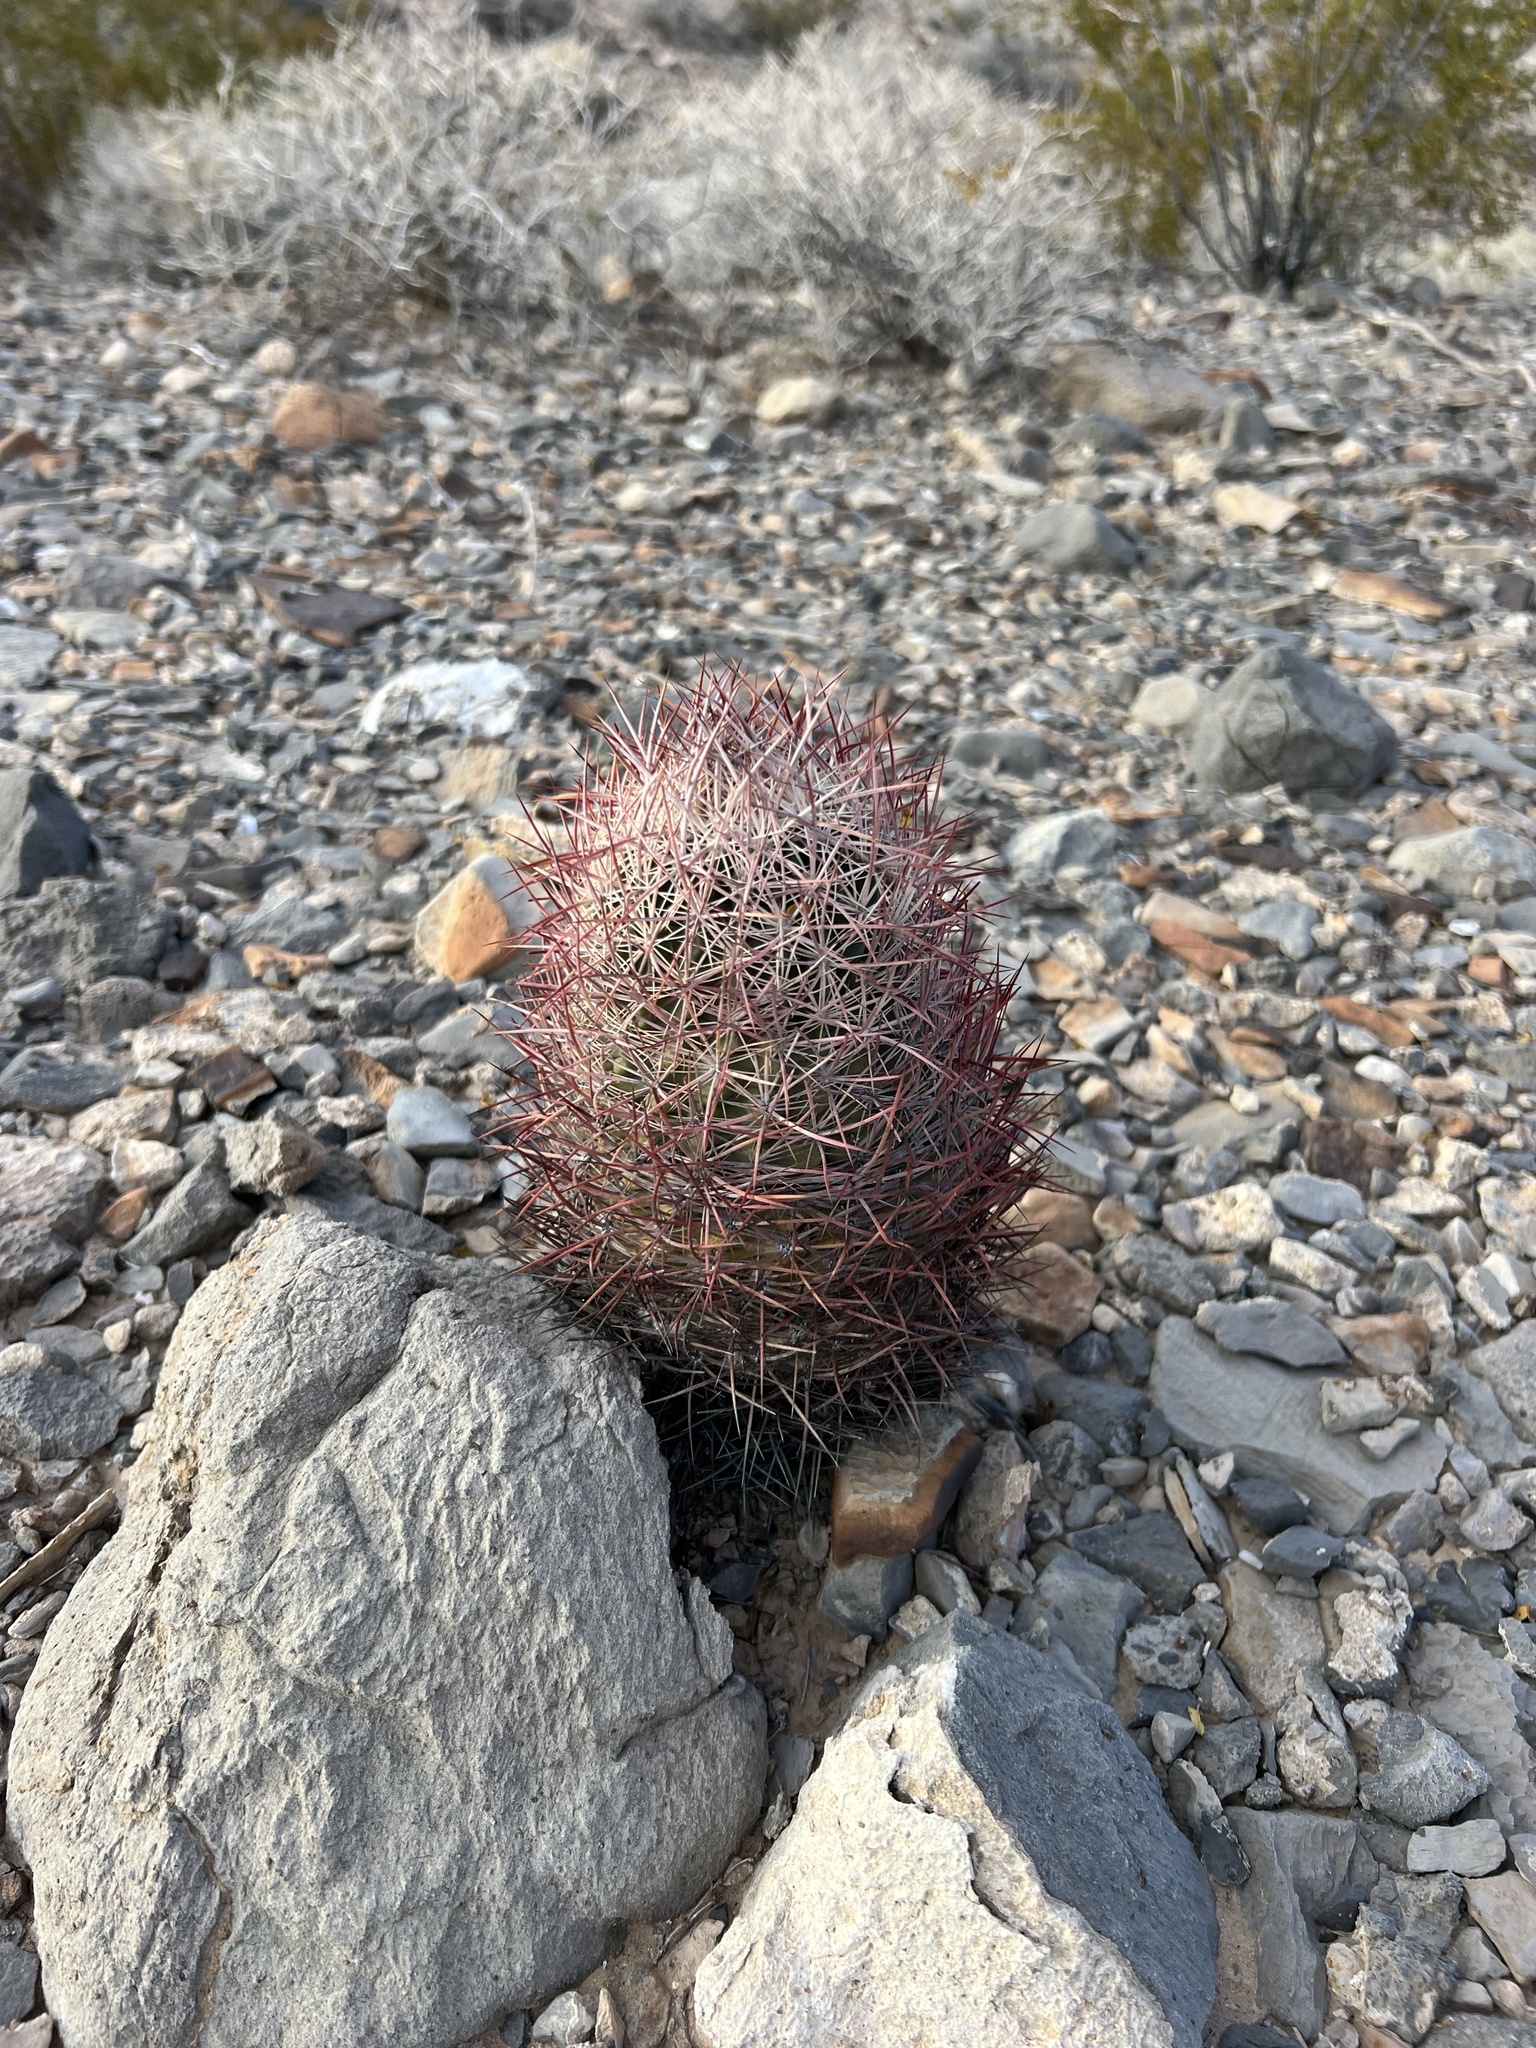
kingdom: Plantae
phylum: Tracheophyta
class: Magnoliopsida
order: Caryophyllales
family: Cactaceae
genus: Sclerocactus
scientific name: Sclerocactus johnsonii
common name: Eight-spine fishhook cactus
